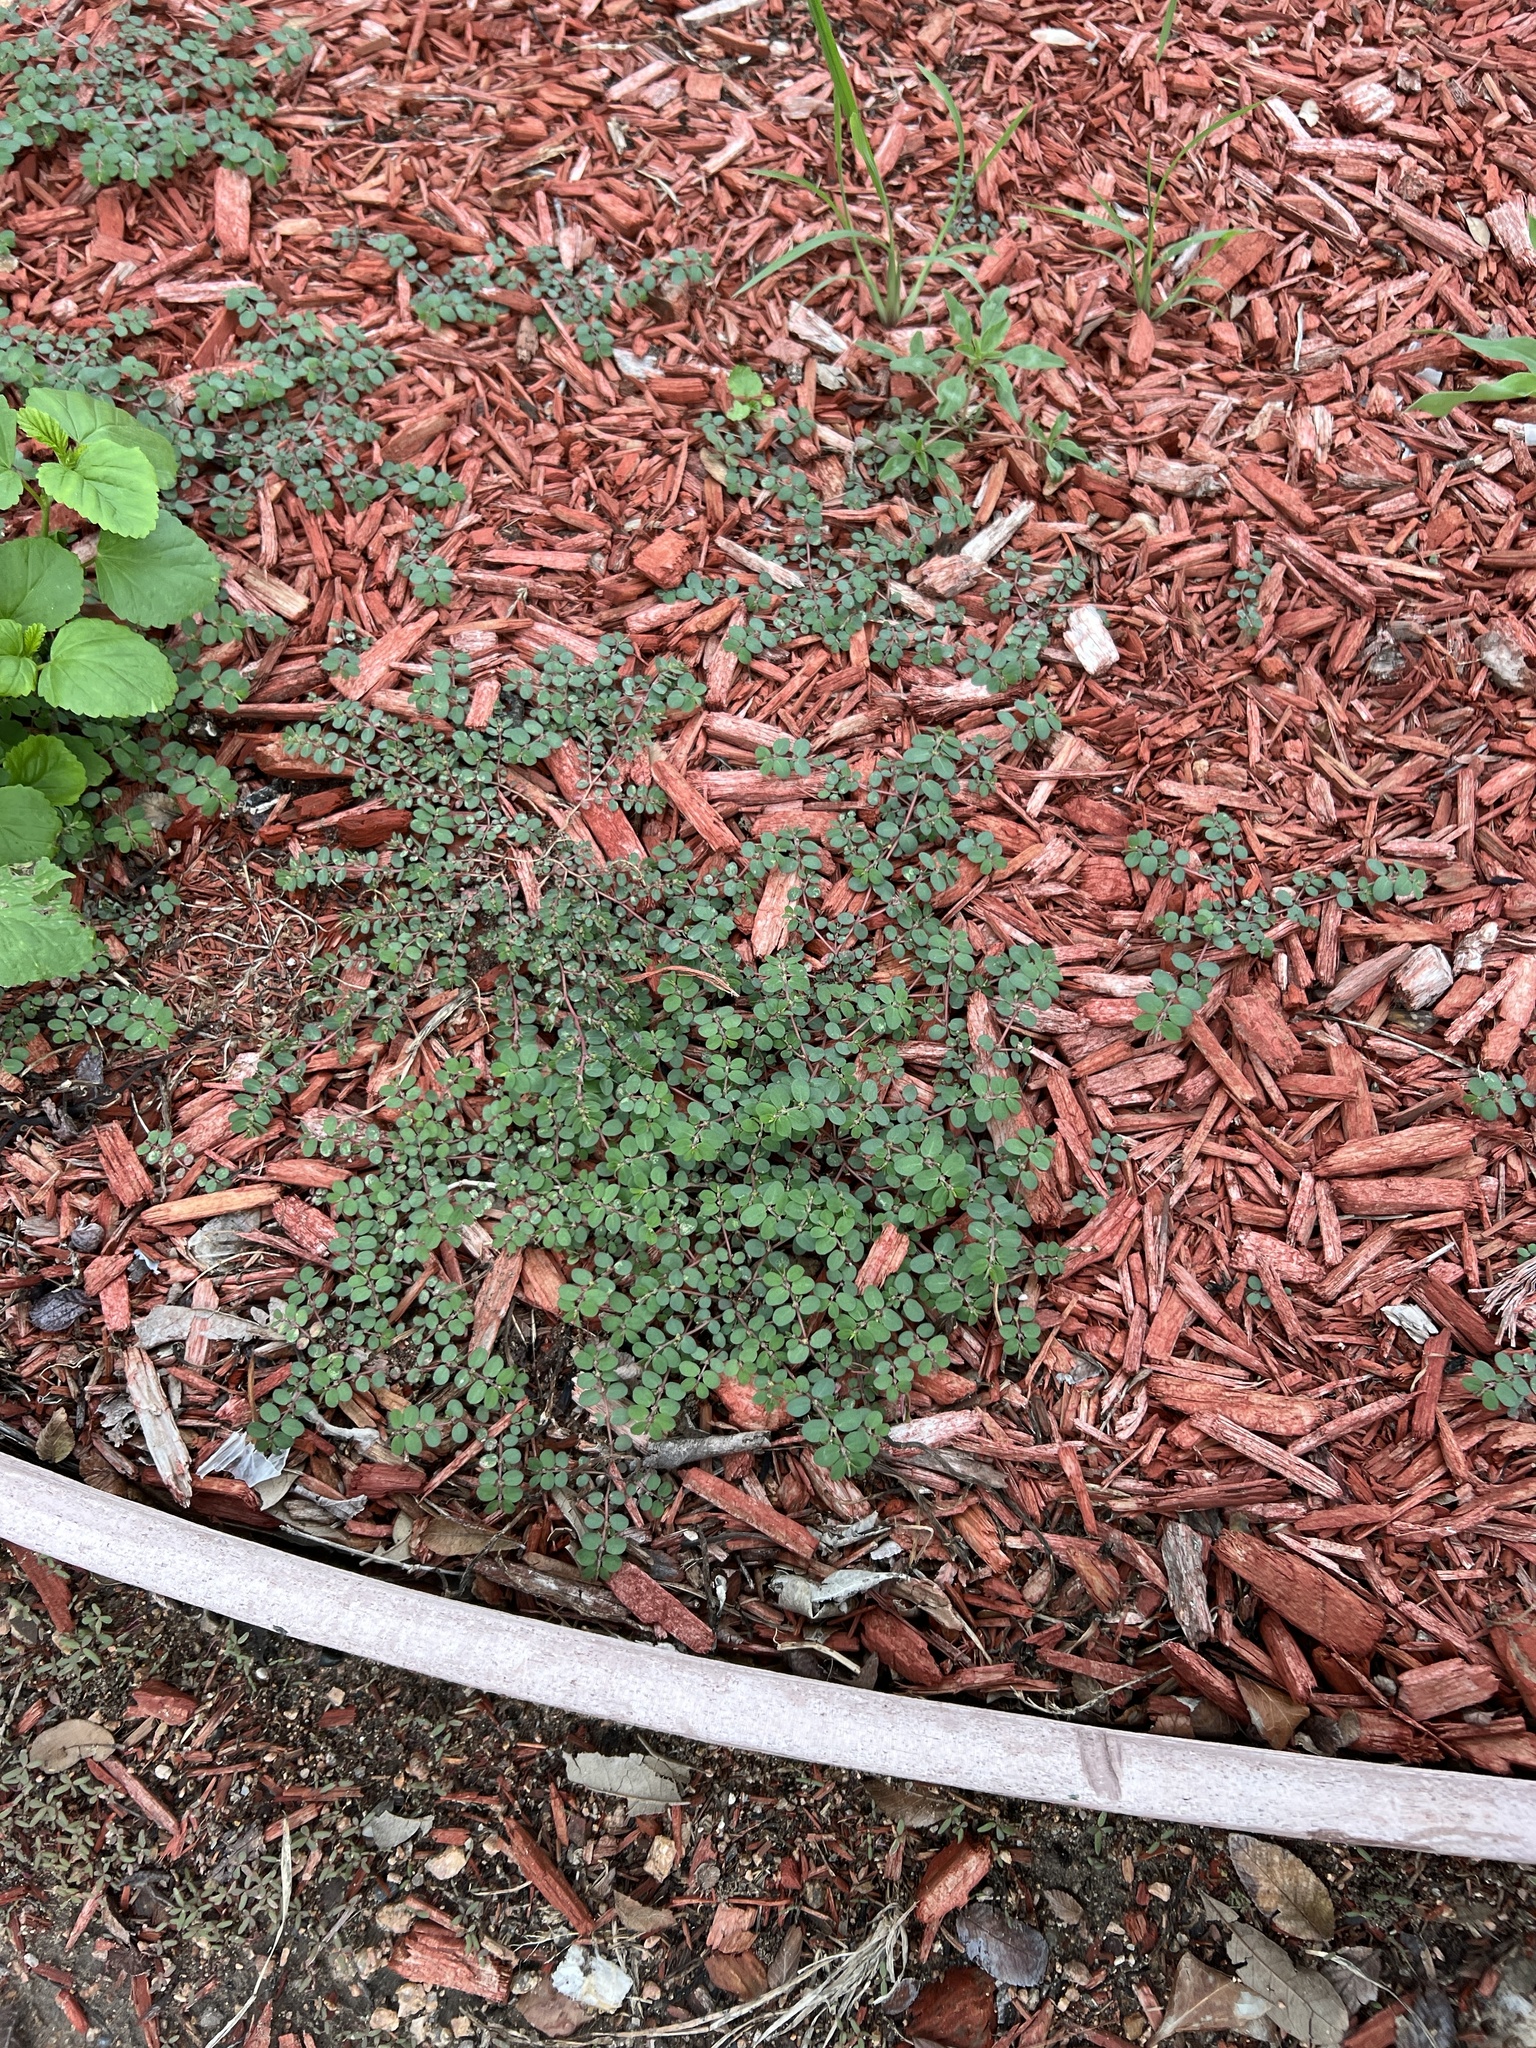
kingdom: Plantae
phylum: Tracheophyta
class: Magnoliopsida
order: Malpighiales
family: Euphorbiaceae
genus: Euphorbia
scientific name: Euphorbia prostrata
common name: Prostrate sandmat
